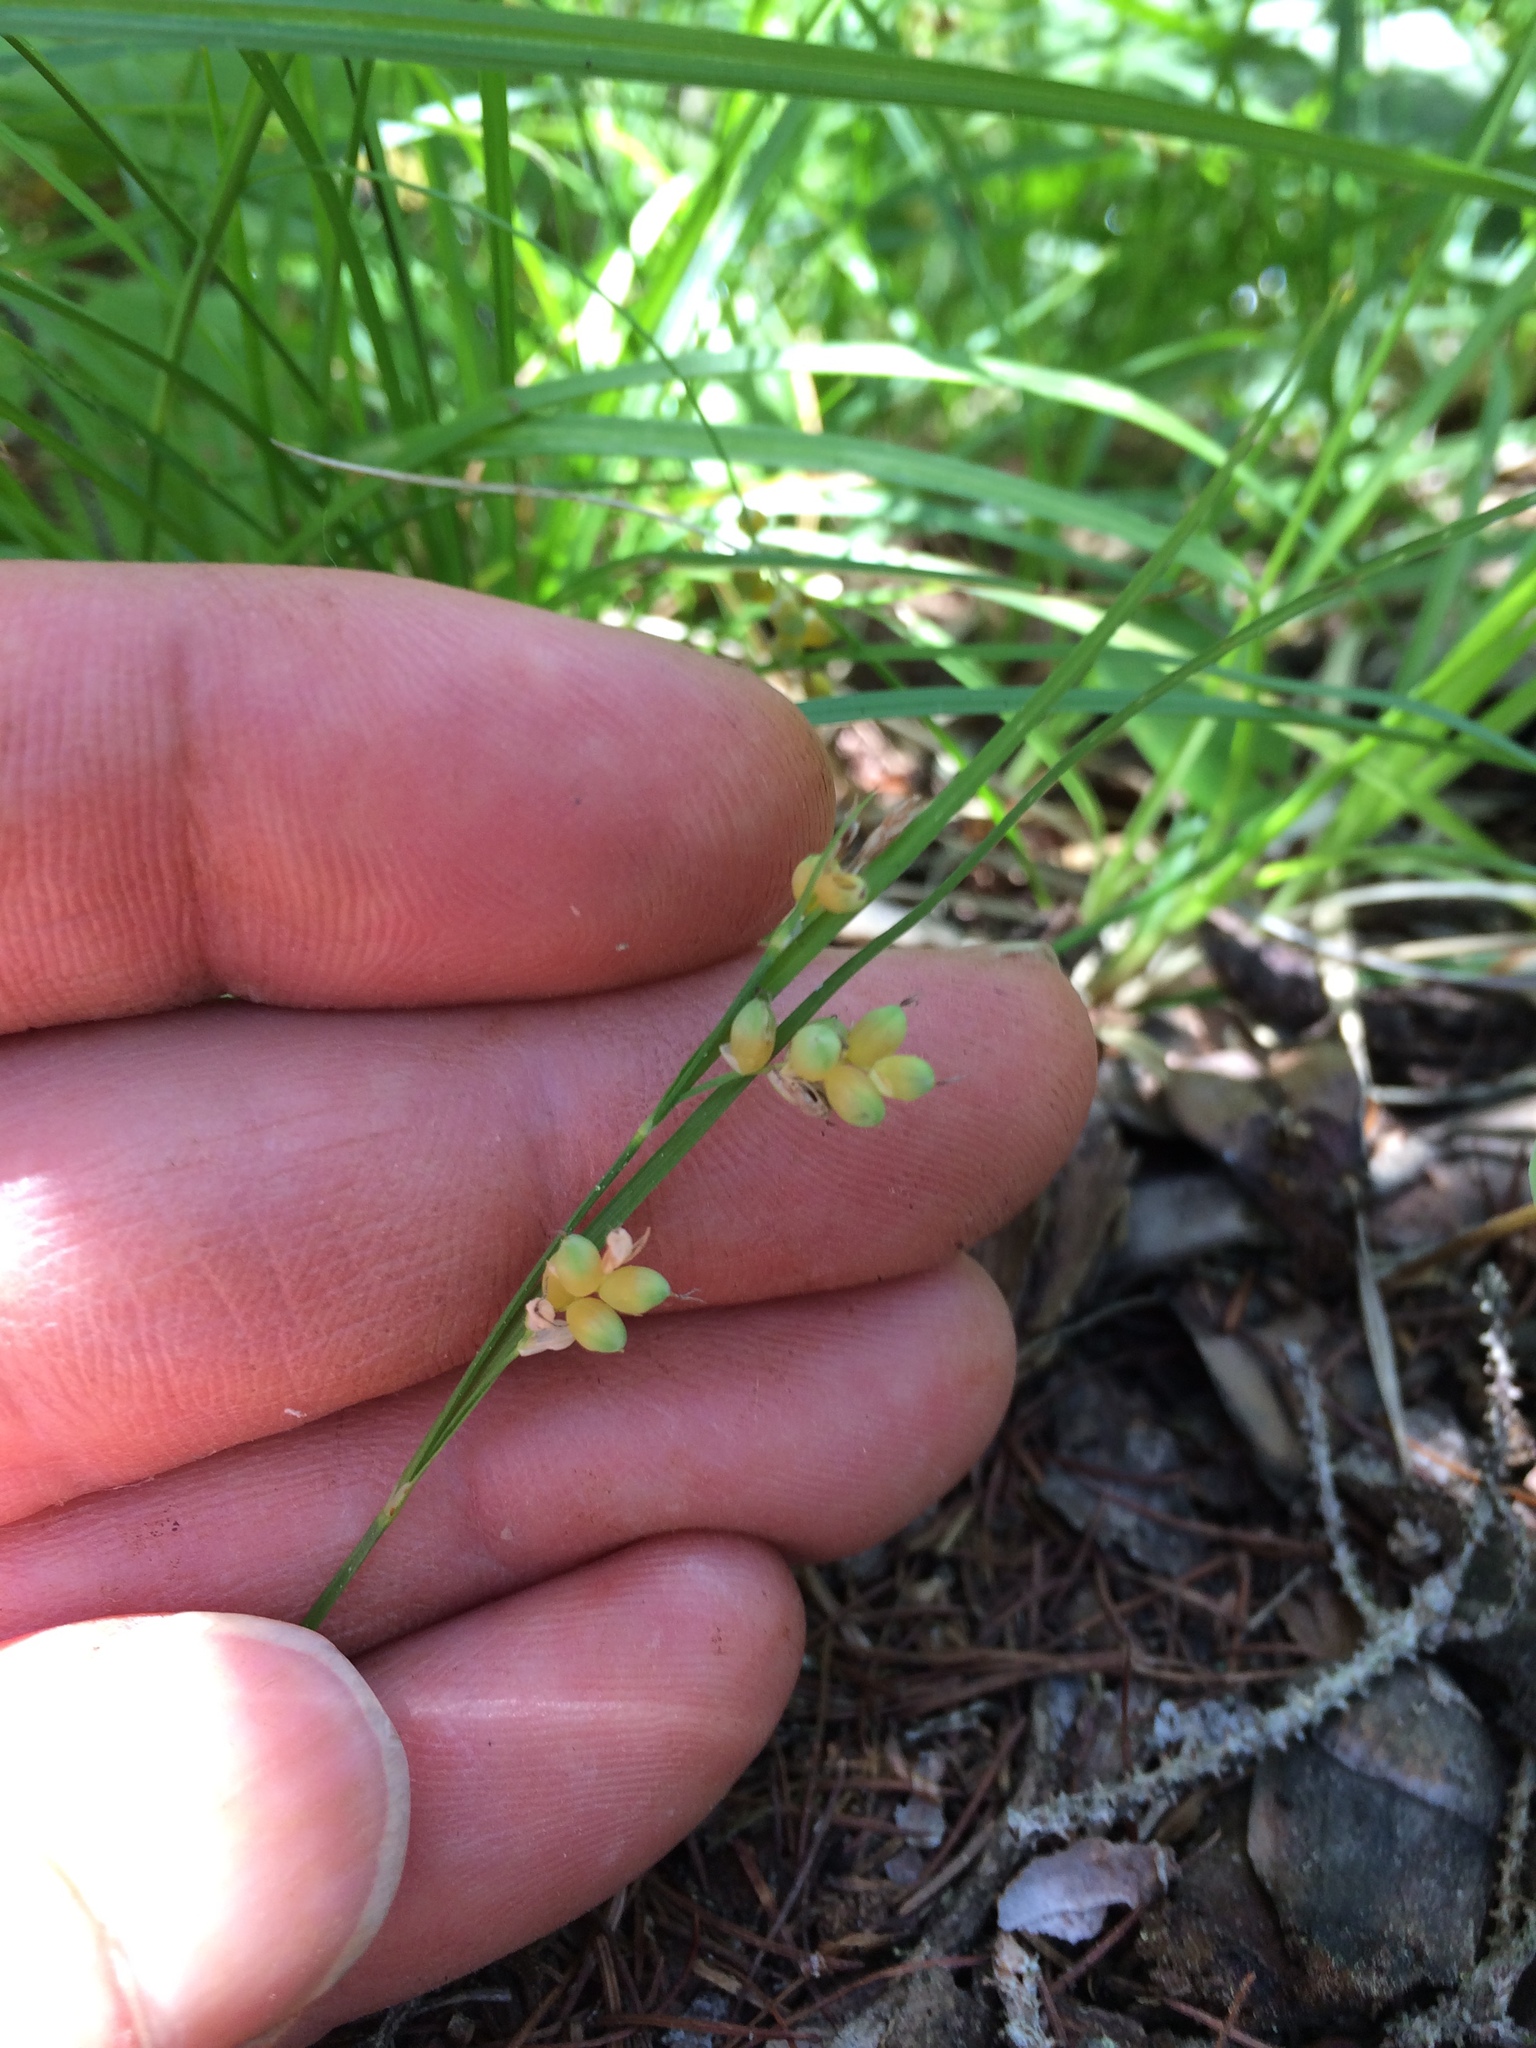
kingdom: Plantae
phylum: Tracheophyta
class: Liliopsida
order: Poales
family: Cyperaceae
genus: Carex
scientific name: Carex aurea
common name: Golden sedge
